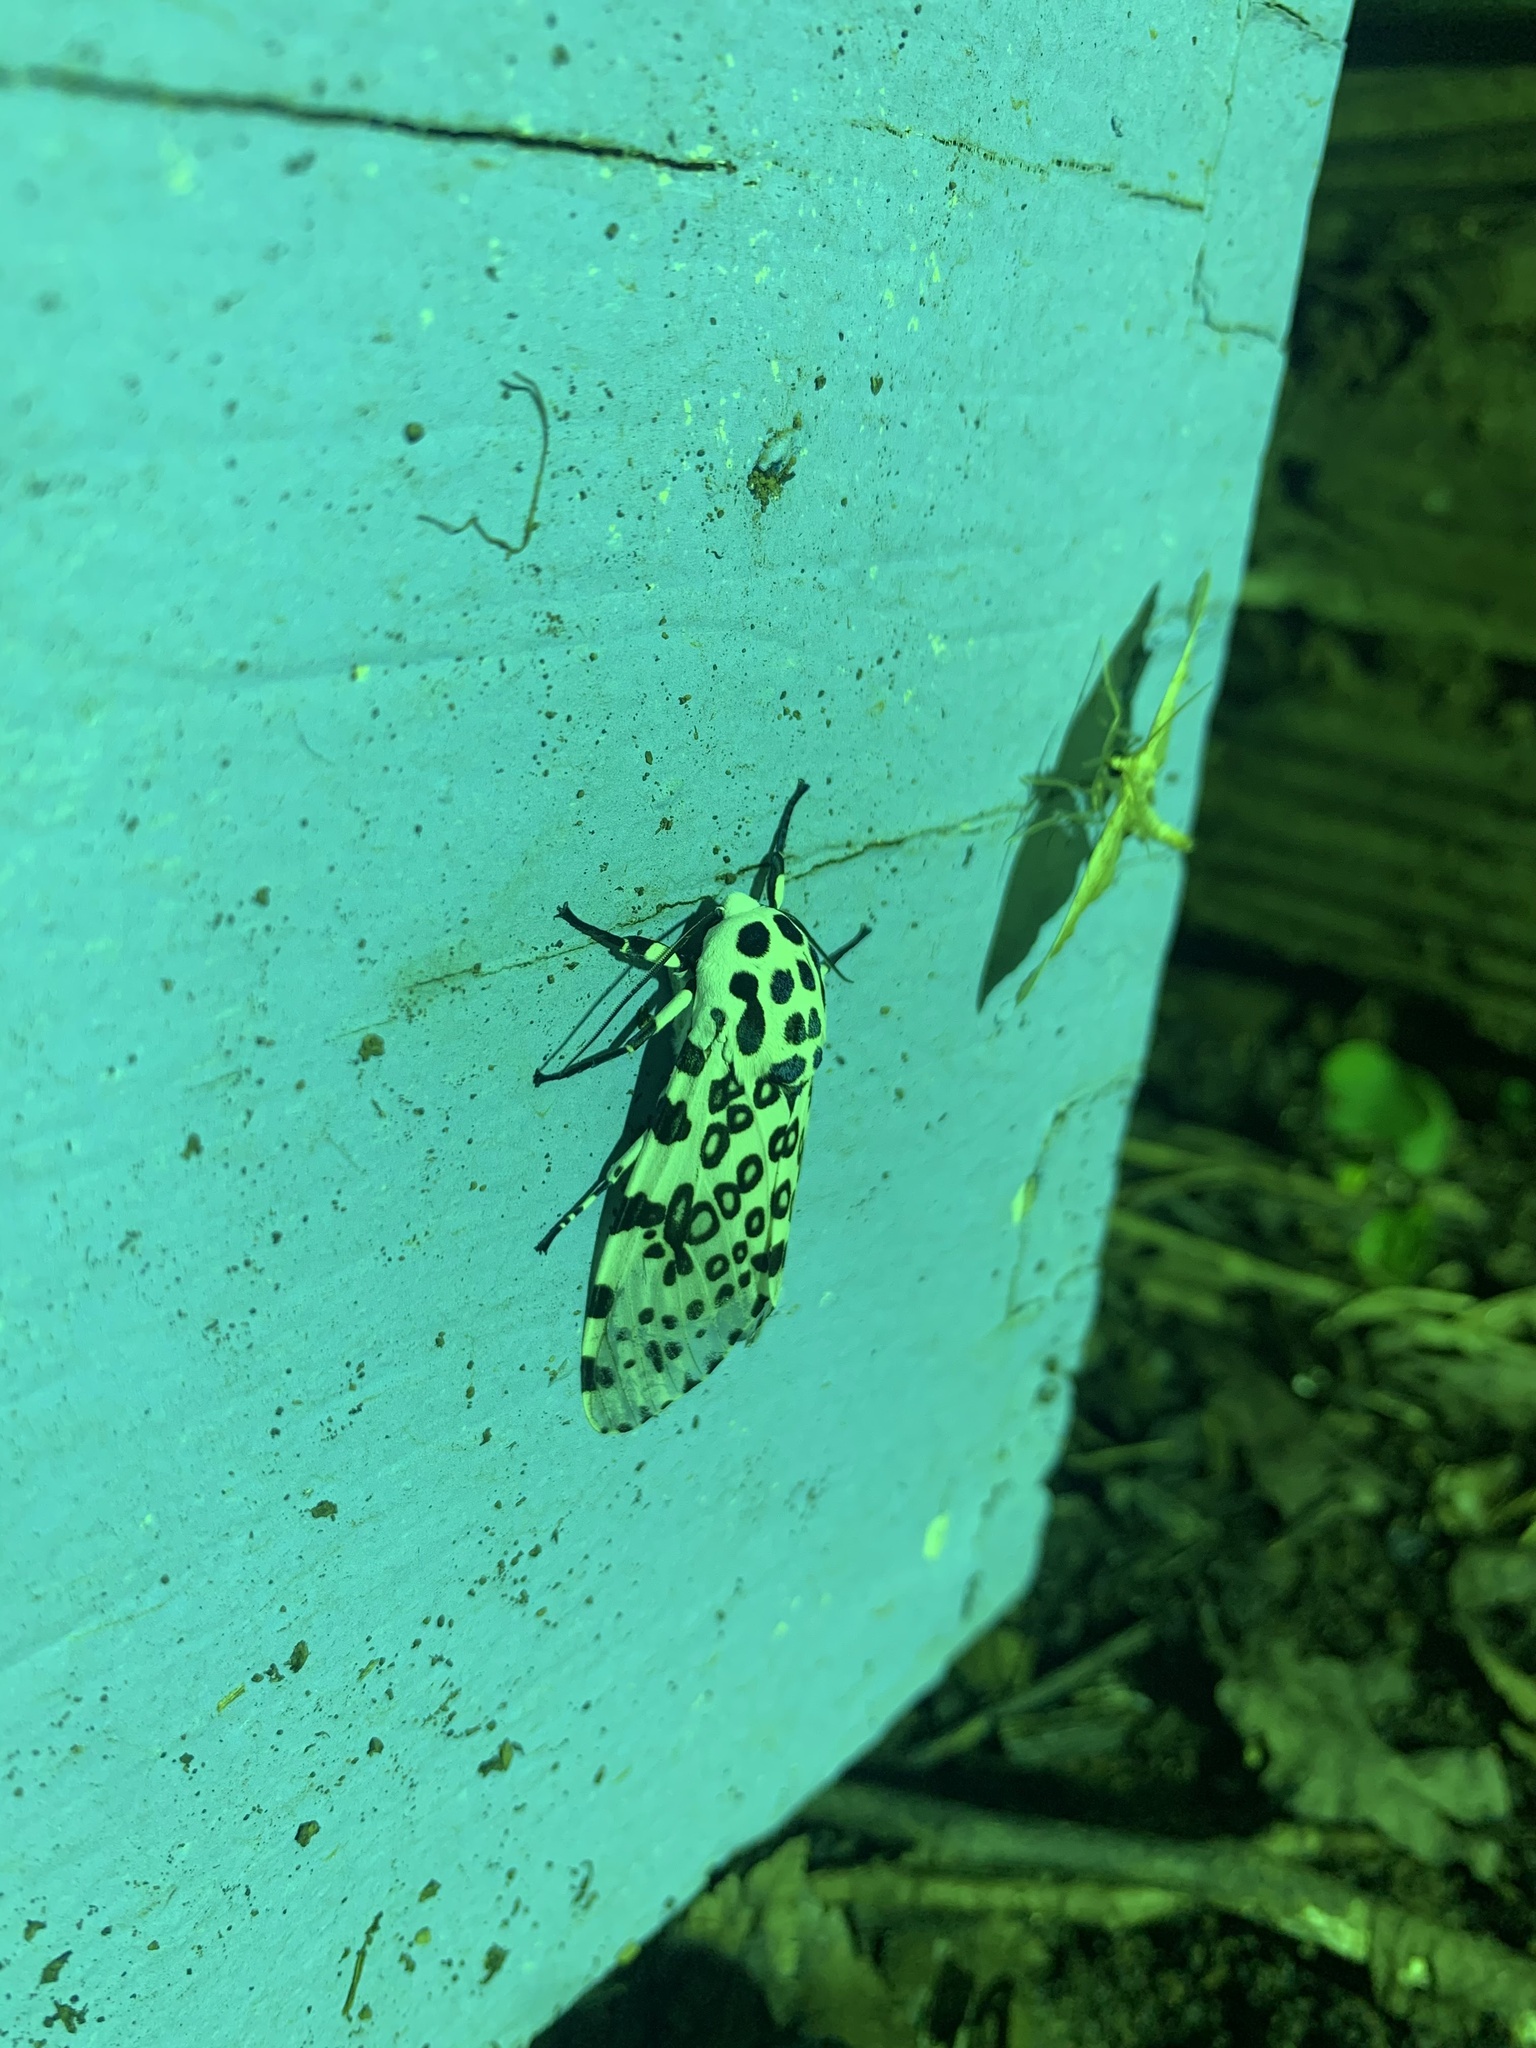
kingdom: Animalia
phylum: Arthropoda
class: Insecta
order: Lepidoptera
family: Erebidae
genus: Hypercompe
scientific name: Hypercompe scribonia
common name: Giant leopard moth
